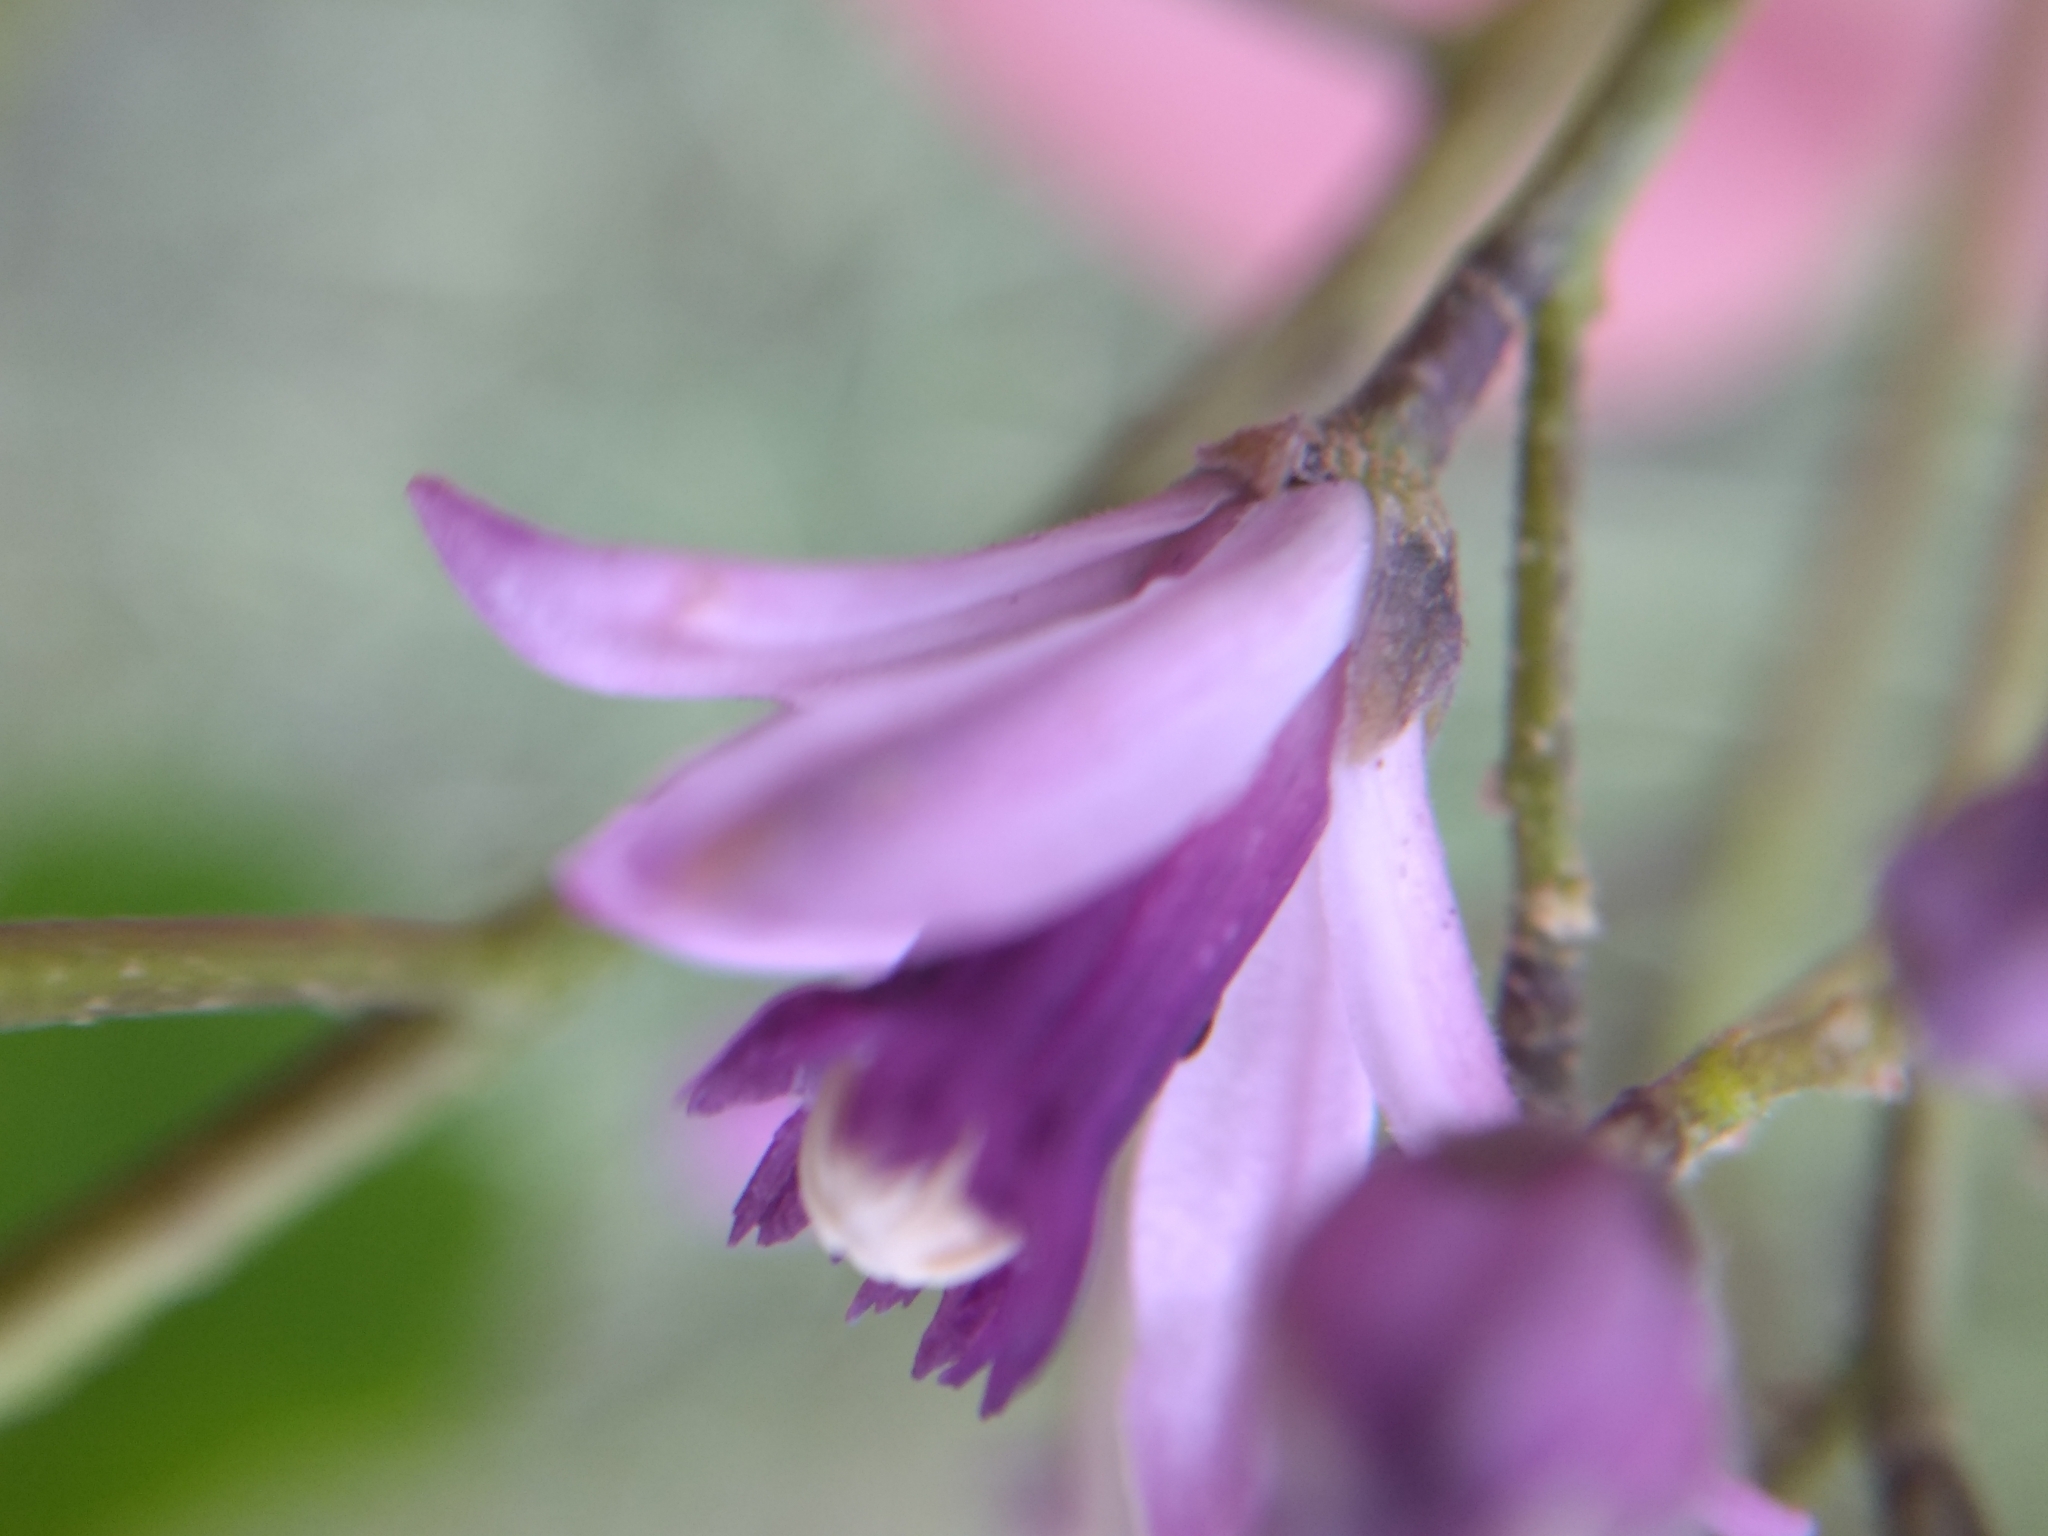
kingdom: Plantae
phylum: Tracheophyta
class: Magnoliopsida
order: Sapindales
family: Meliaceae
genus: Melia
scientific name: Melia azedarach
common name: Chinaberrytree
